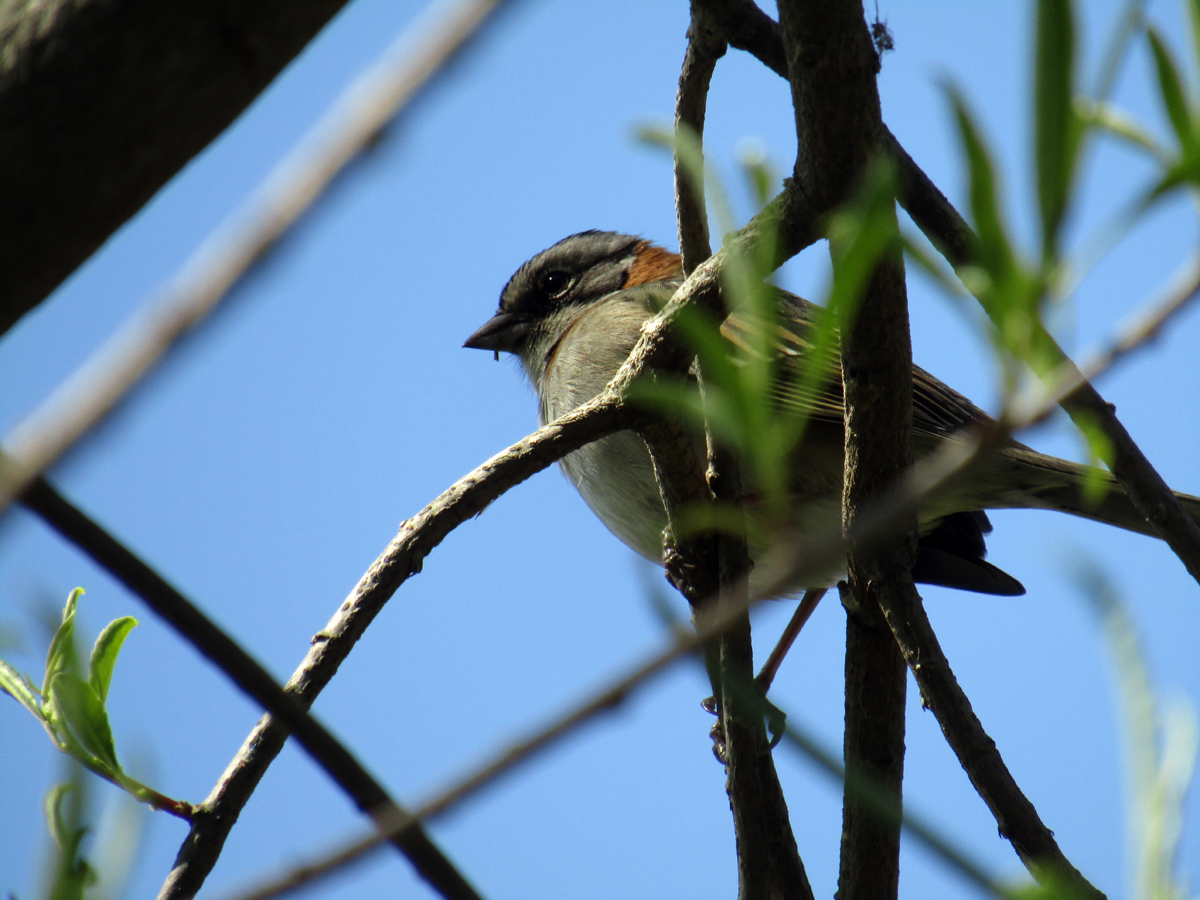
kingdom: Animalia
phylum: Chordata
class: Aves
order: Passeriformes
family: Passerellidae
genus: Zonotrichia
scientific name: Zonotrichia capensis
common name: Rufous-collared sparrow
